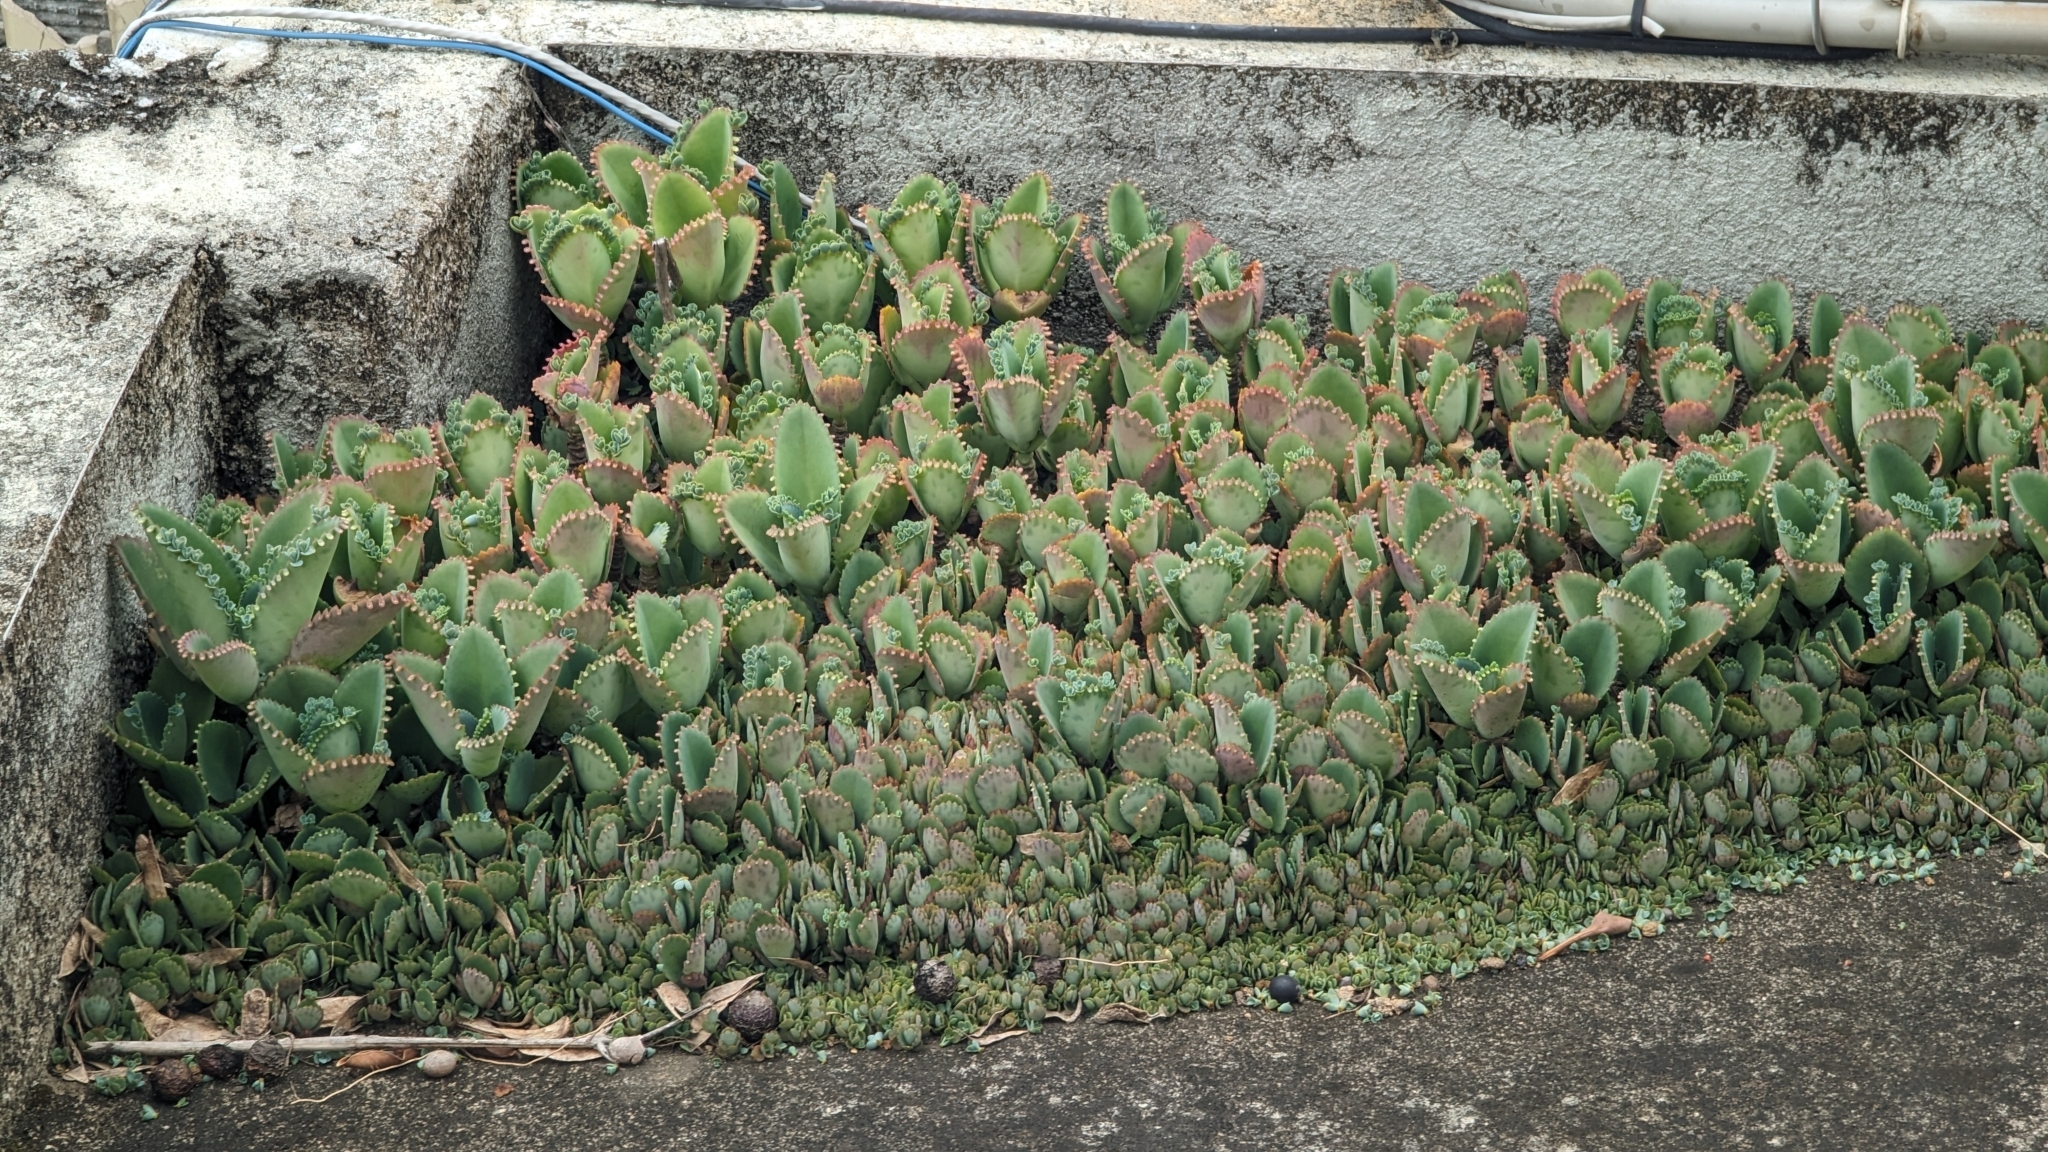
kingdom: Plantae
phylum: Tracheophyta
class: Magnoliopsida
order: Saxifragales
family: Crassulaceae
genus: Kalanchoe
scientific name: Kalanchoe laetivirens
